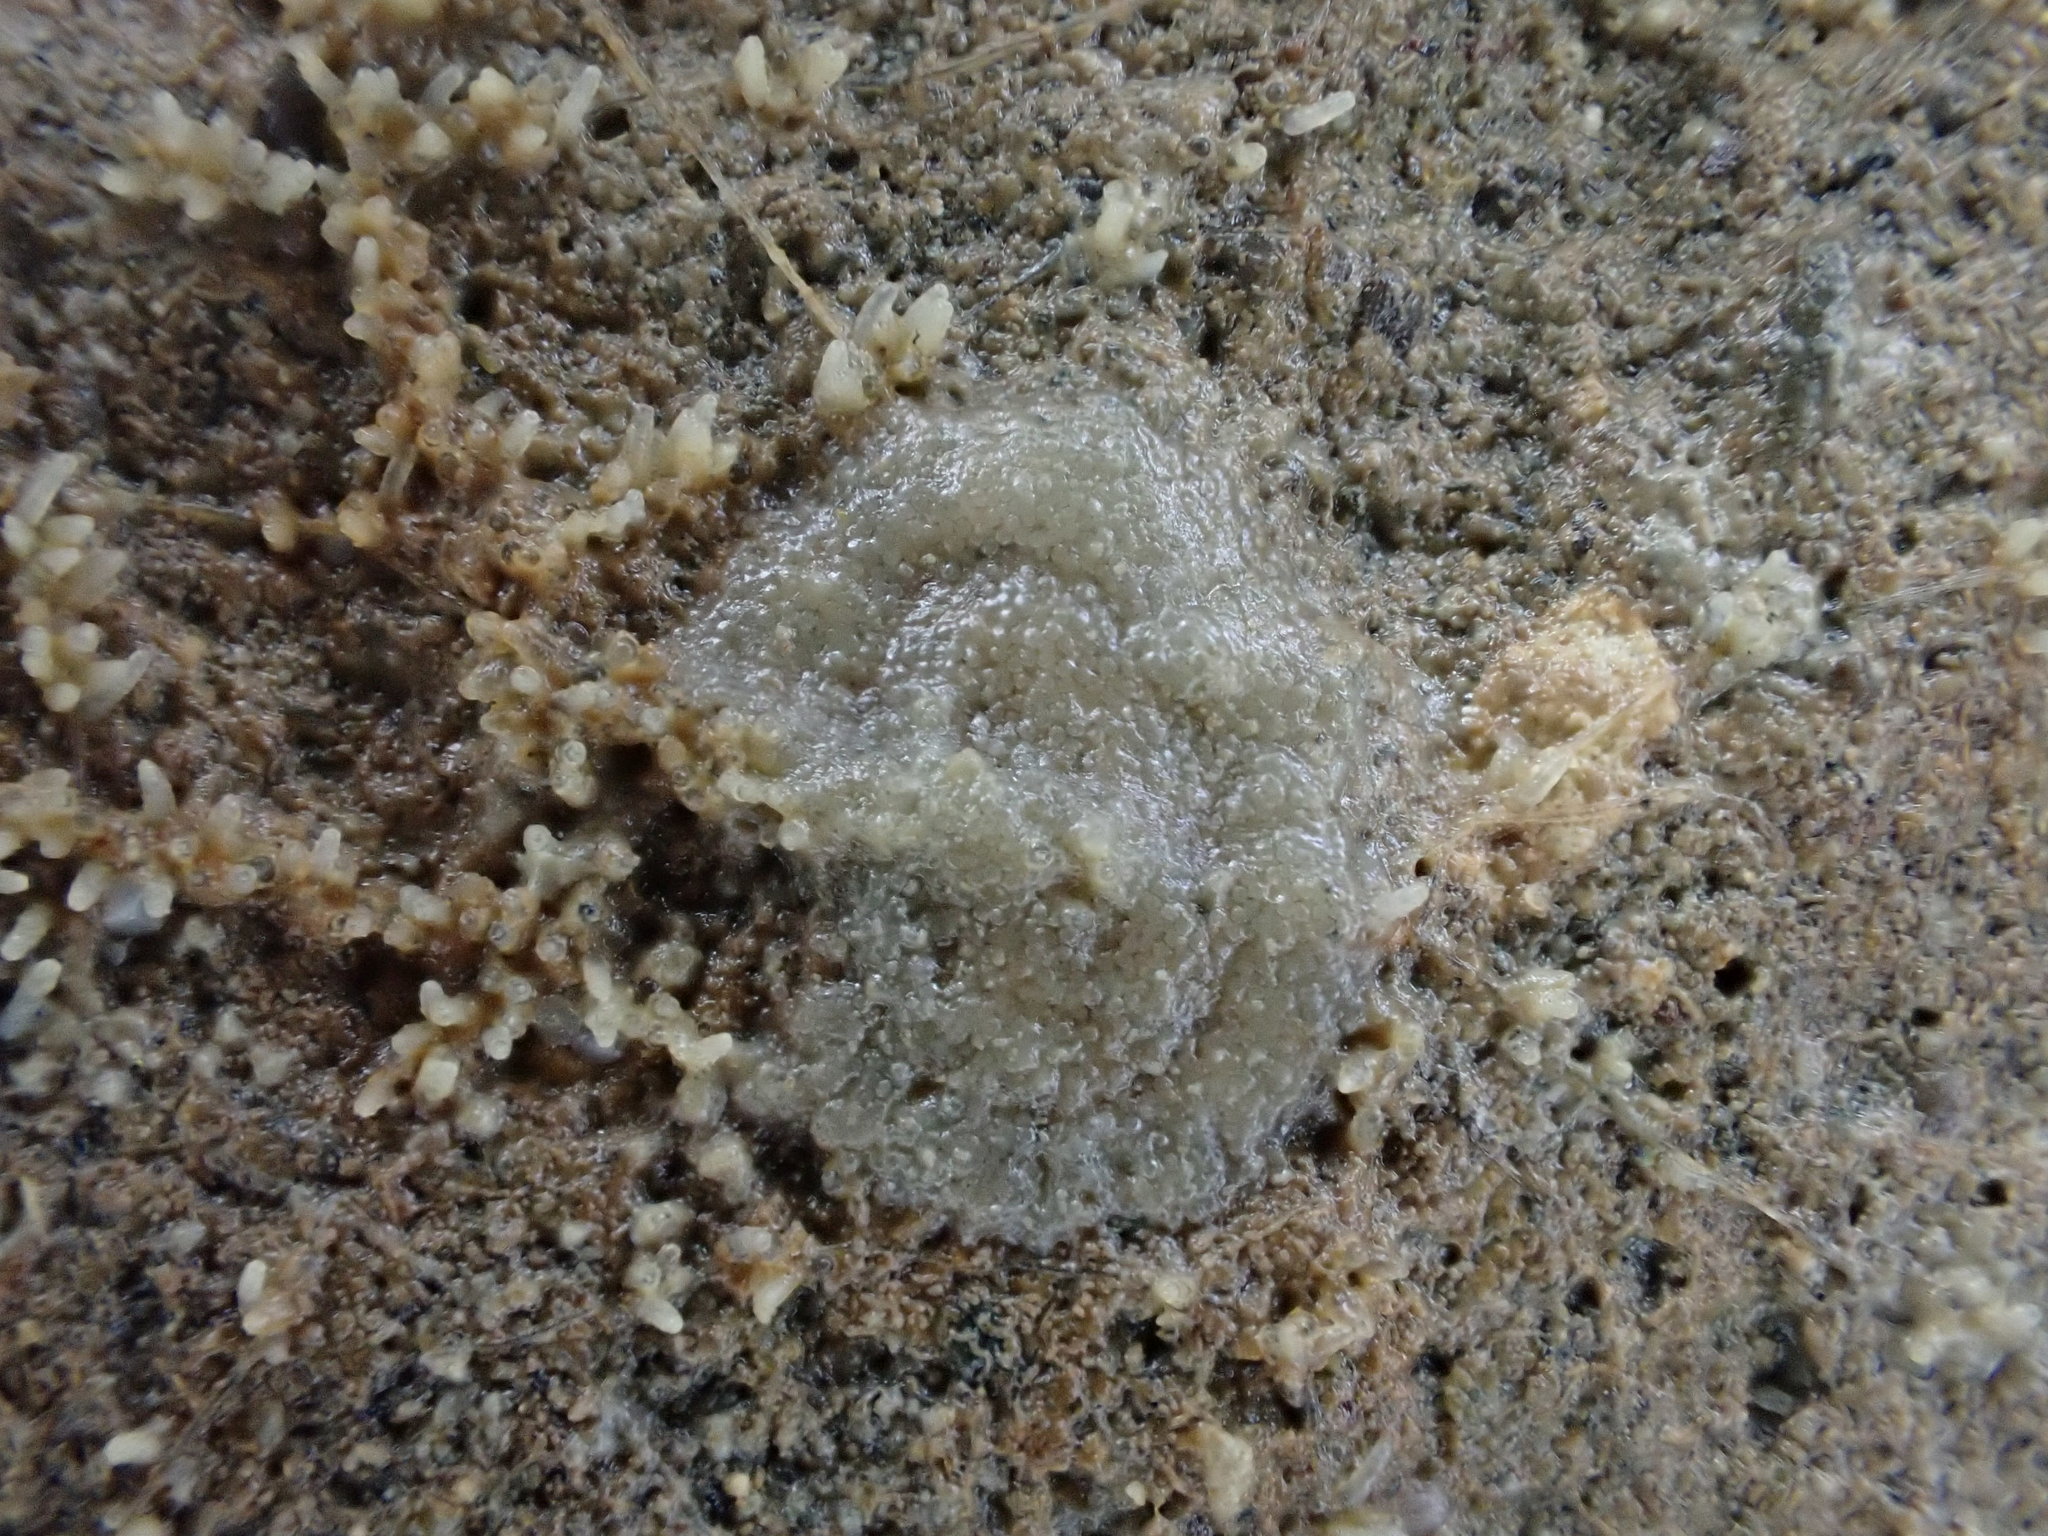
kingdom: Animalia
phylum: Mollusca
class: Gastropoda
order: Systellommatophora
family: Onchidiidae
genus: Onchidella
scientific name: Onchidella nigricans
